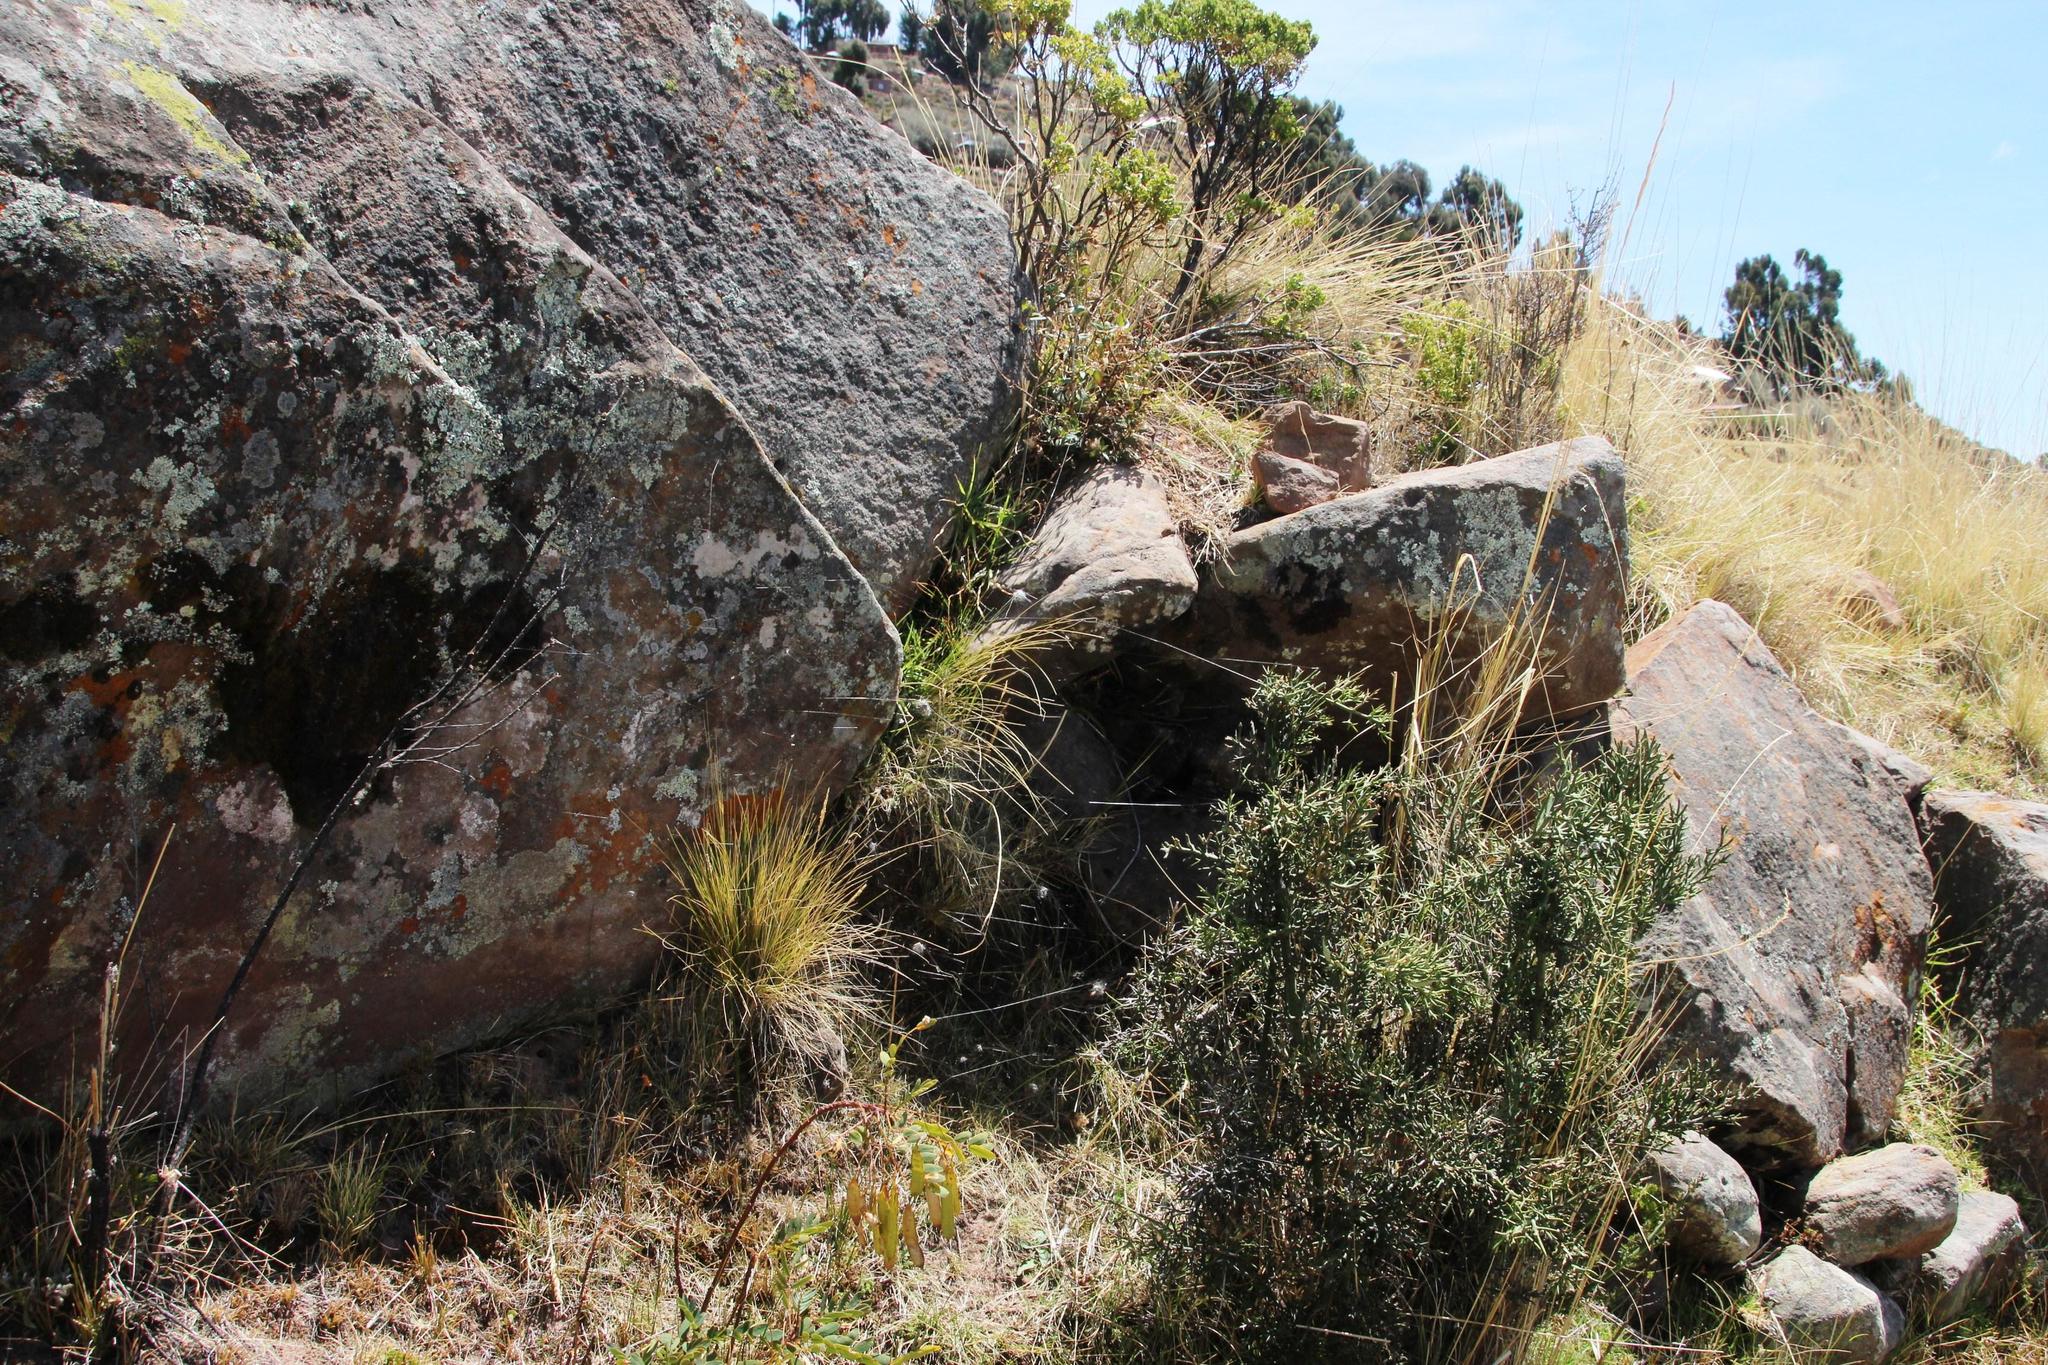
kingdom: Plantae
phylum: Tracheophyta
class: Magnoliopsida
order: Rosales
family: Rhamnaceae
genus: Colletia
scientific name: Colletia spinosissima
